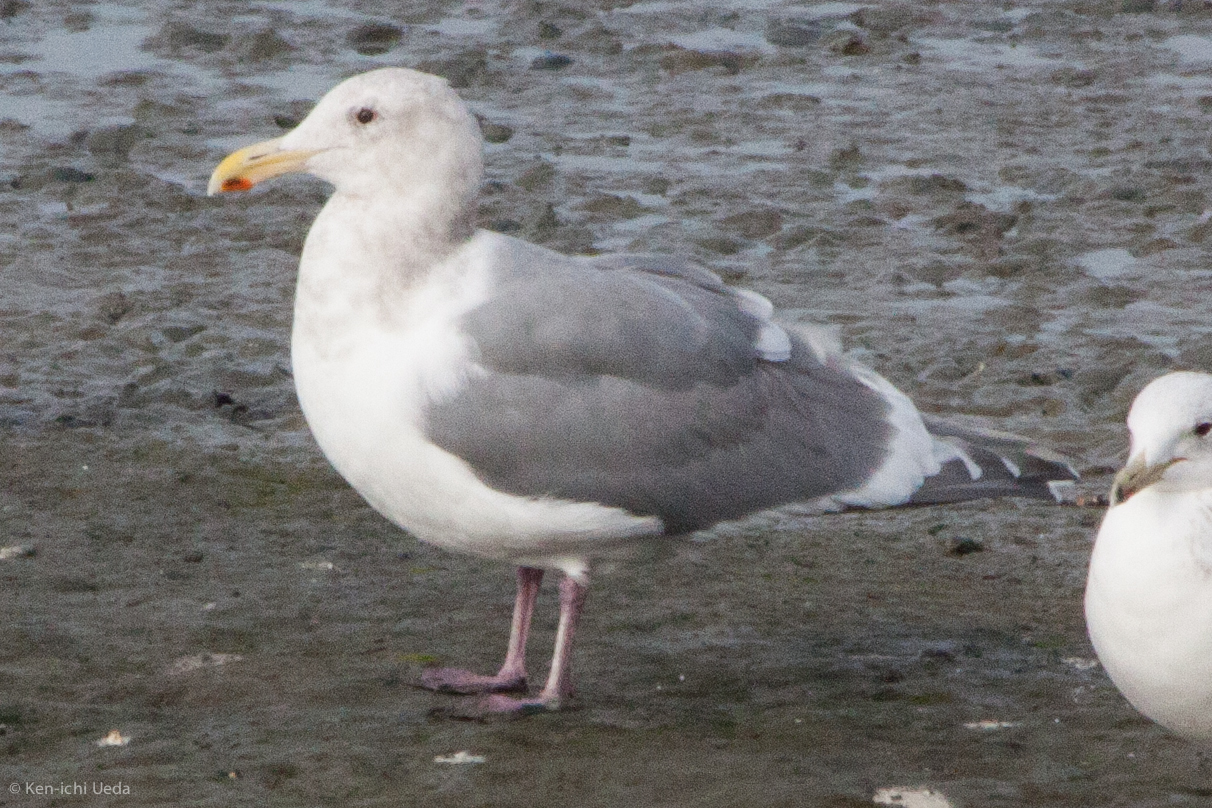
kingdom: Animalia
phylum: Chordata
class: Aves
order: Charadriiformes
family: Laridae
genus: Larus
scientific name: Larus glaucescens
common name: Glaucous-winged gull
